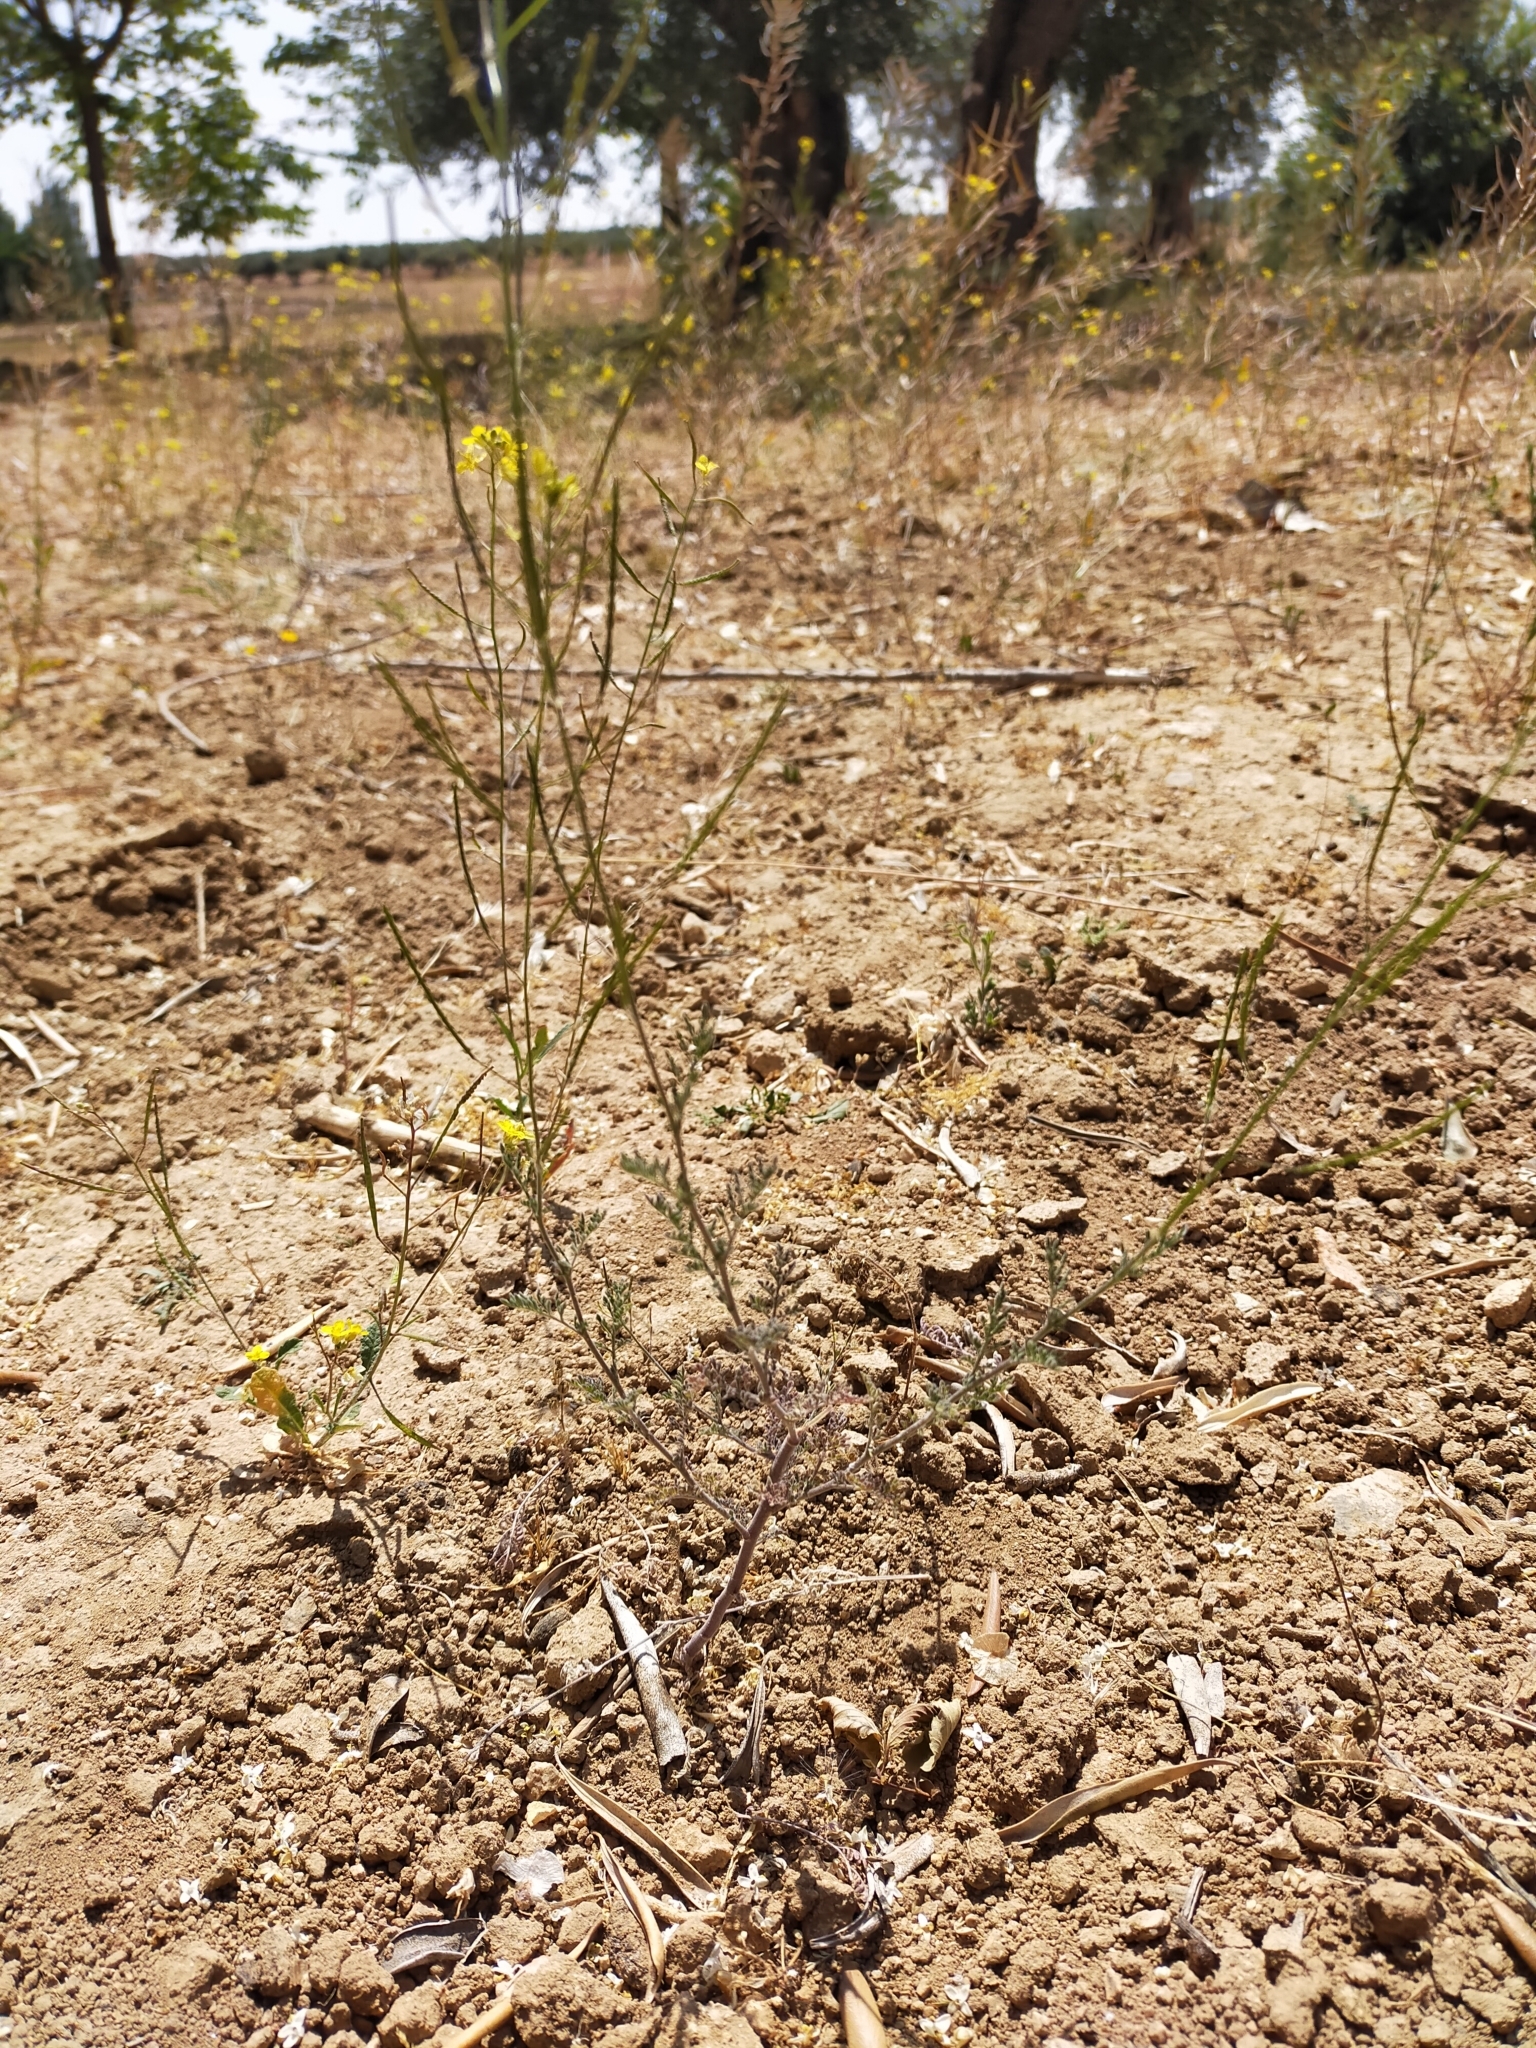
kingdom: Plantae
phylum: Tracheophyta
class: Magnoliopsida
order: Brassicales
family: Brassicaceae
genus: Descurainia
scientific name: Descurainia sophia
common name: Flixweed
